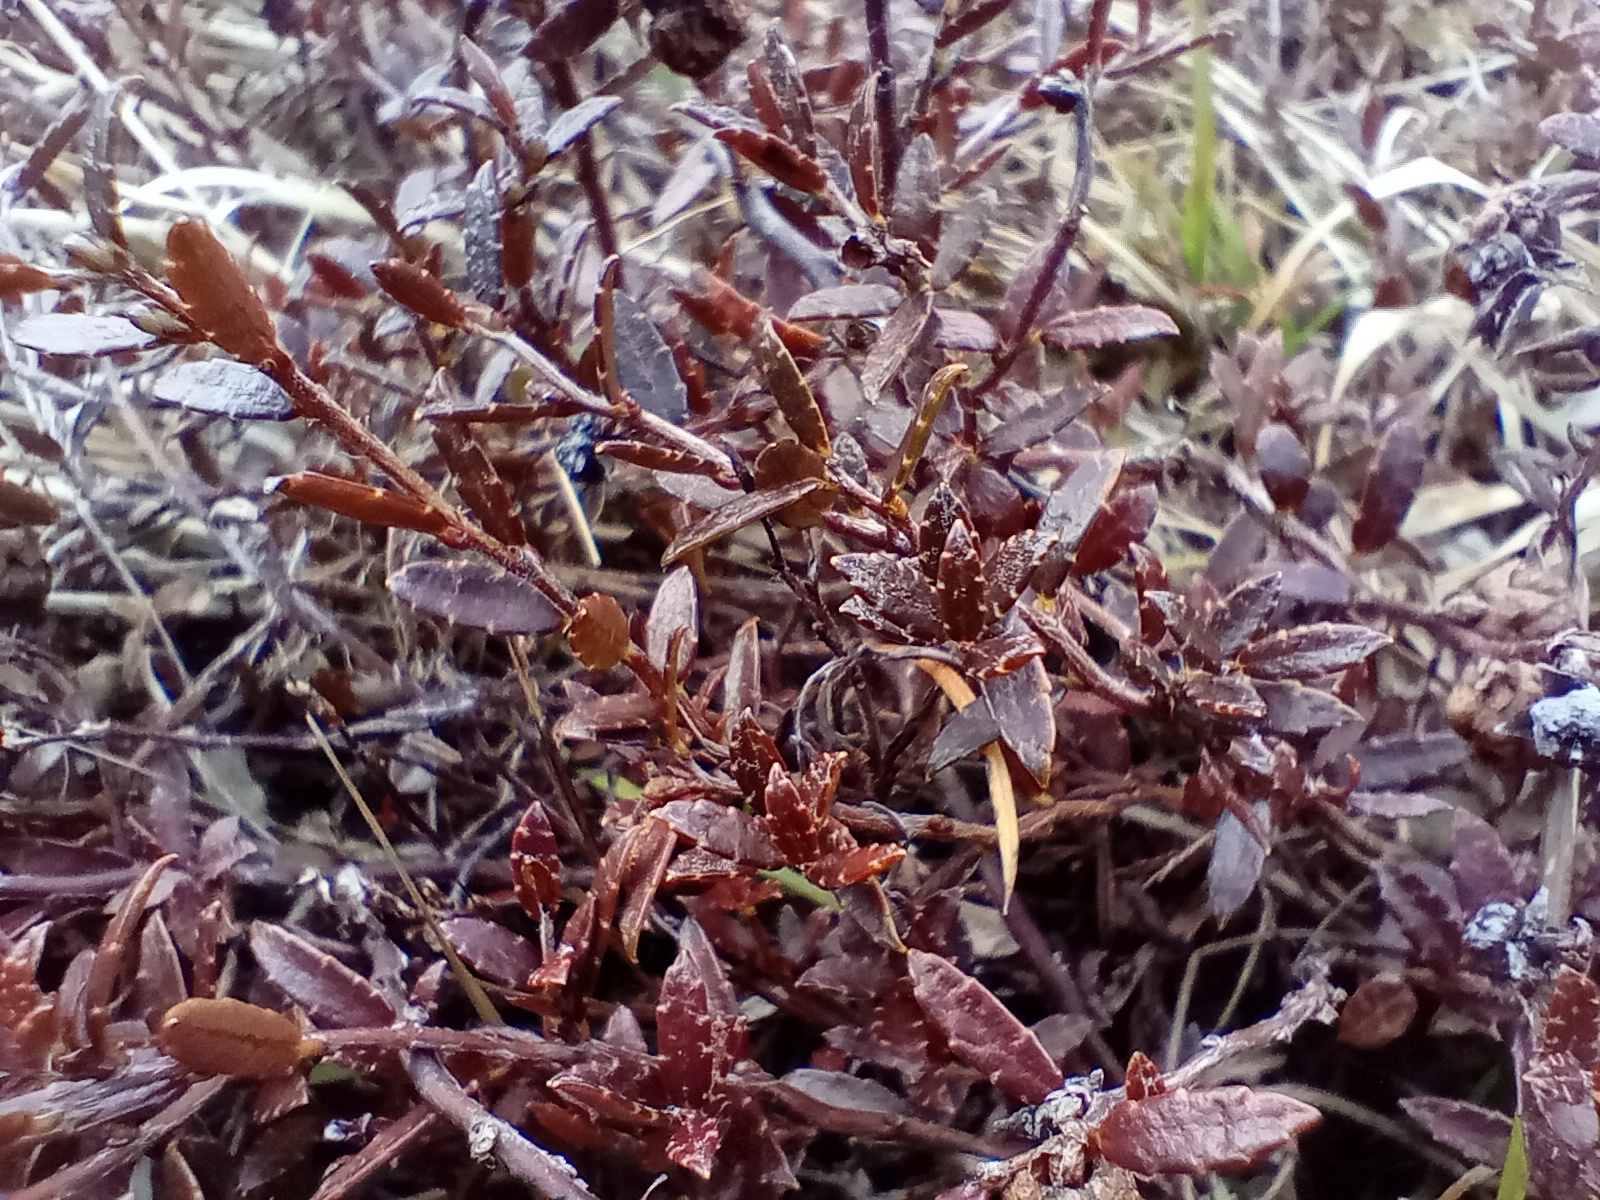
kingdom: Plantae
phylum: Tracheophyta
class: Magnoliopsida
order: Ericales
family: Ericaceae
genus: Gaultheria
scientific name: Gaultheria macrostigma
